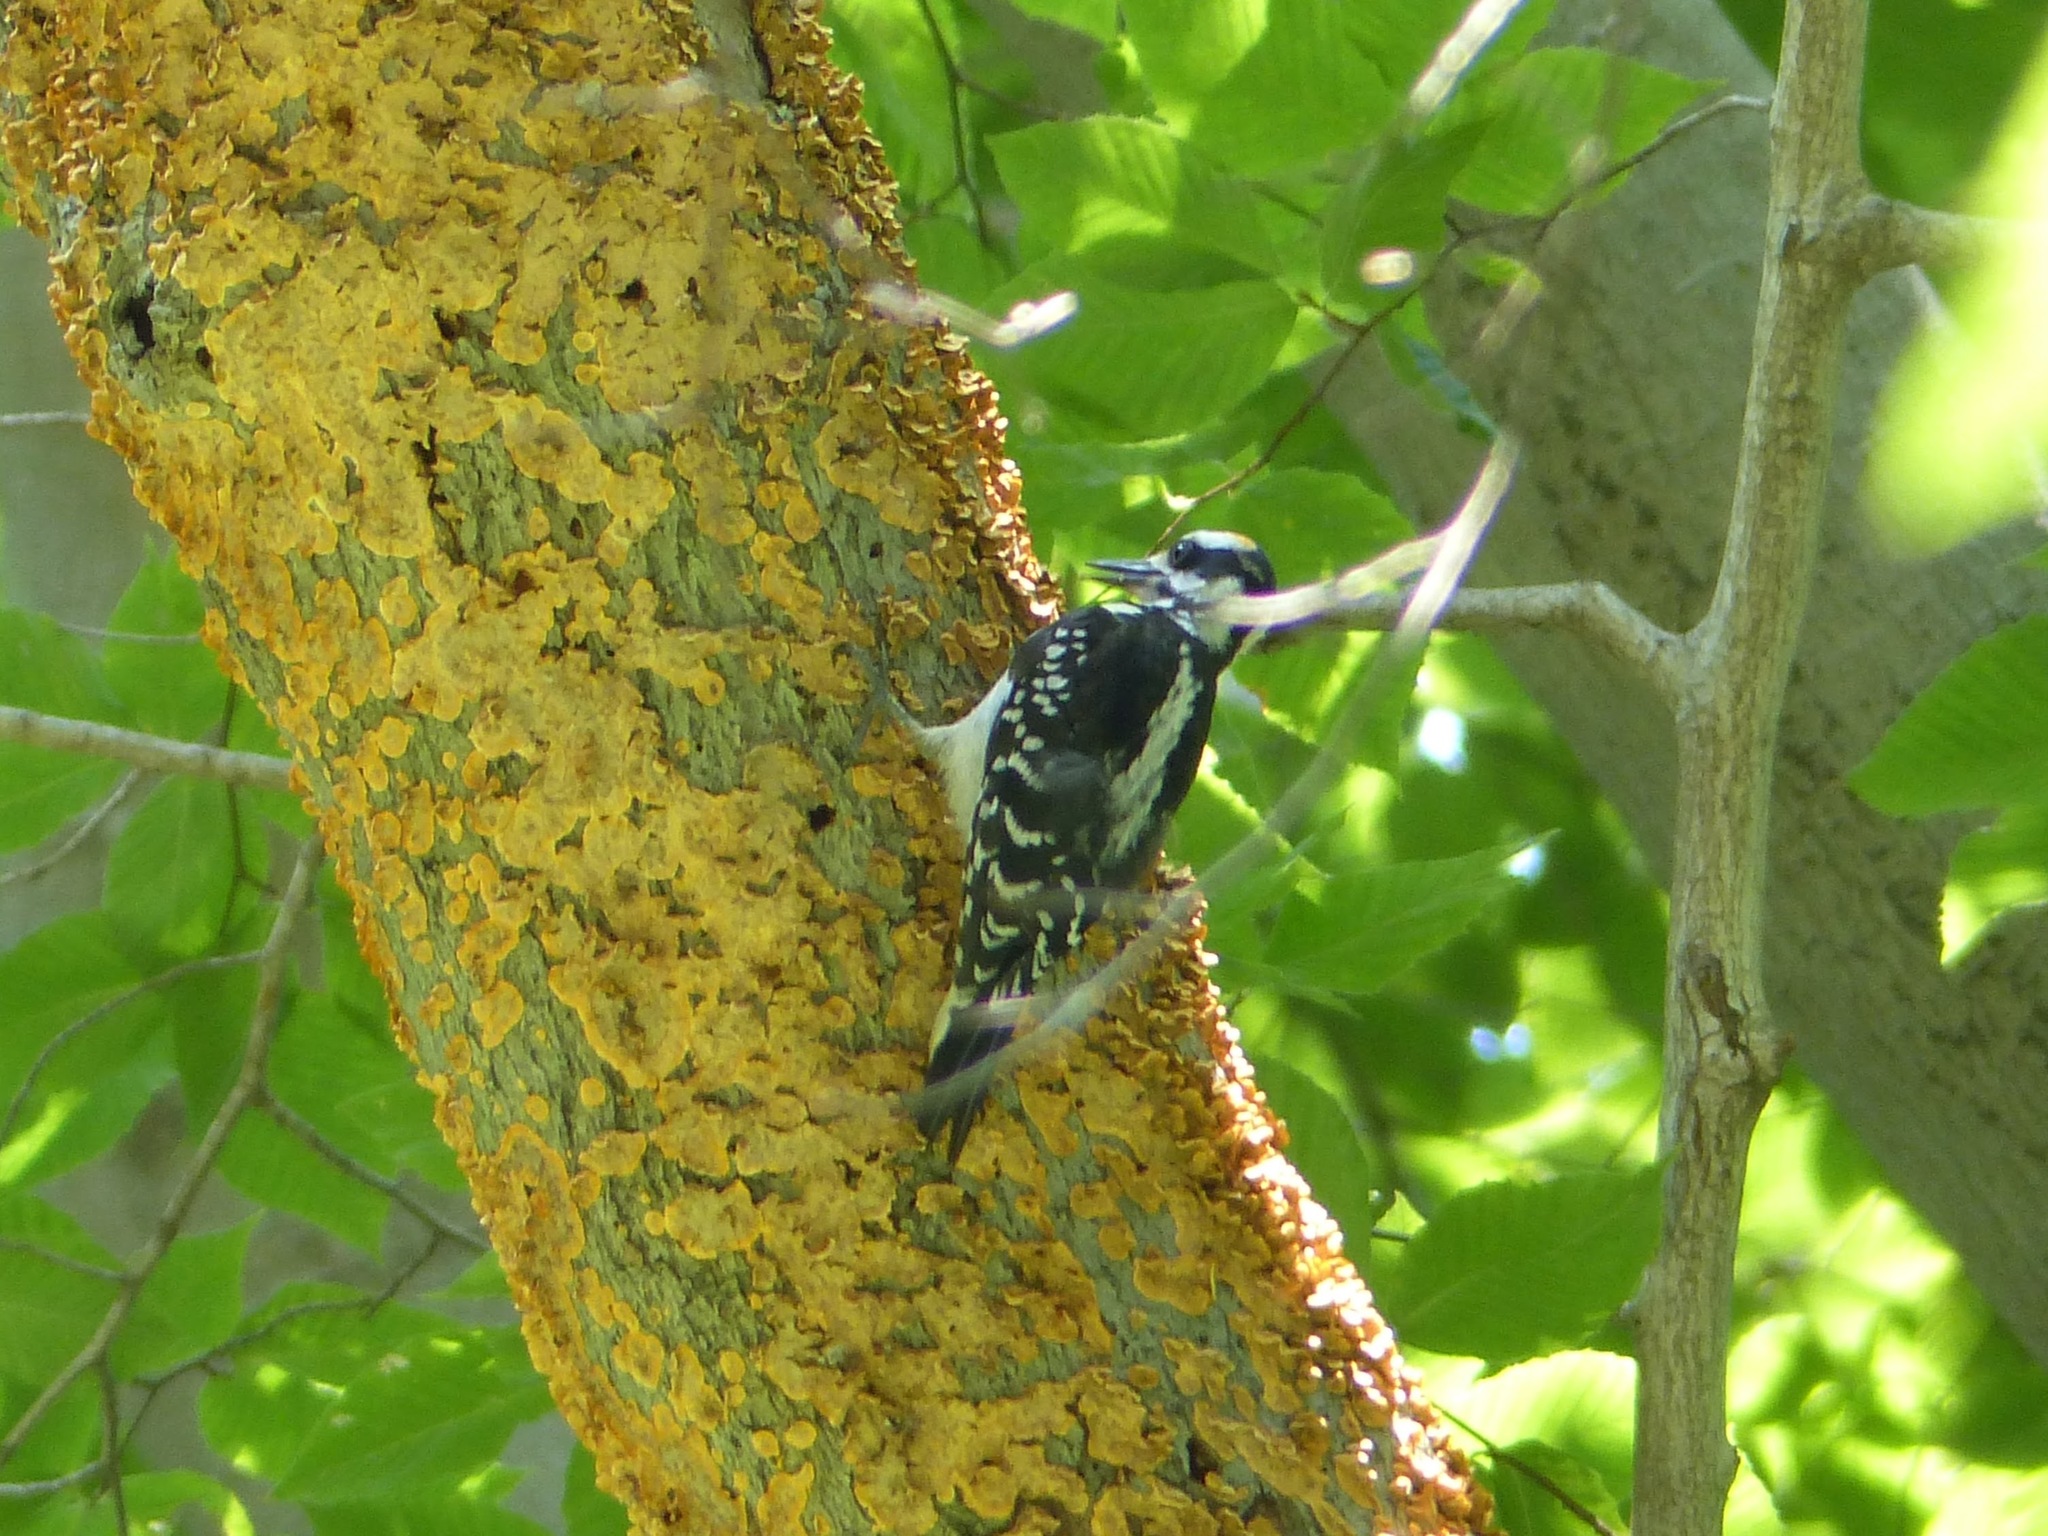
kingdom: Animalia
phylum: Chordata
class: Aves
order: Piciformes
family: Picidae
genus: Leuconotopicus
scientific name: Leuconotopicus villosus
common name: Hairy woodpecker
